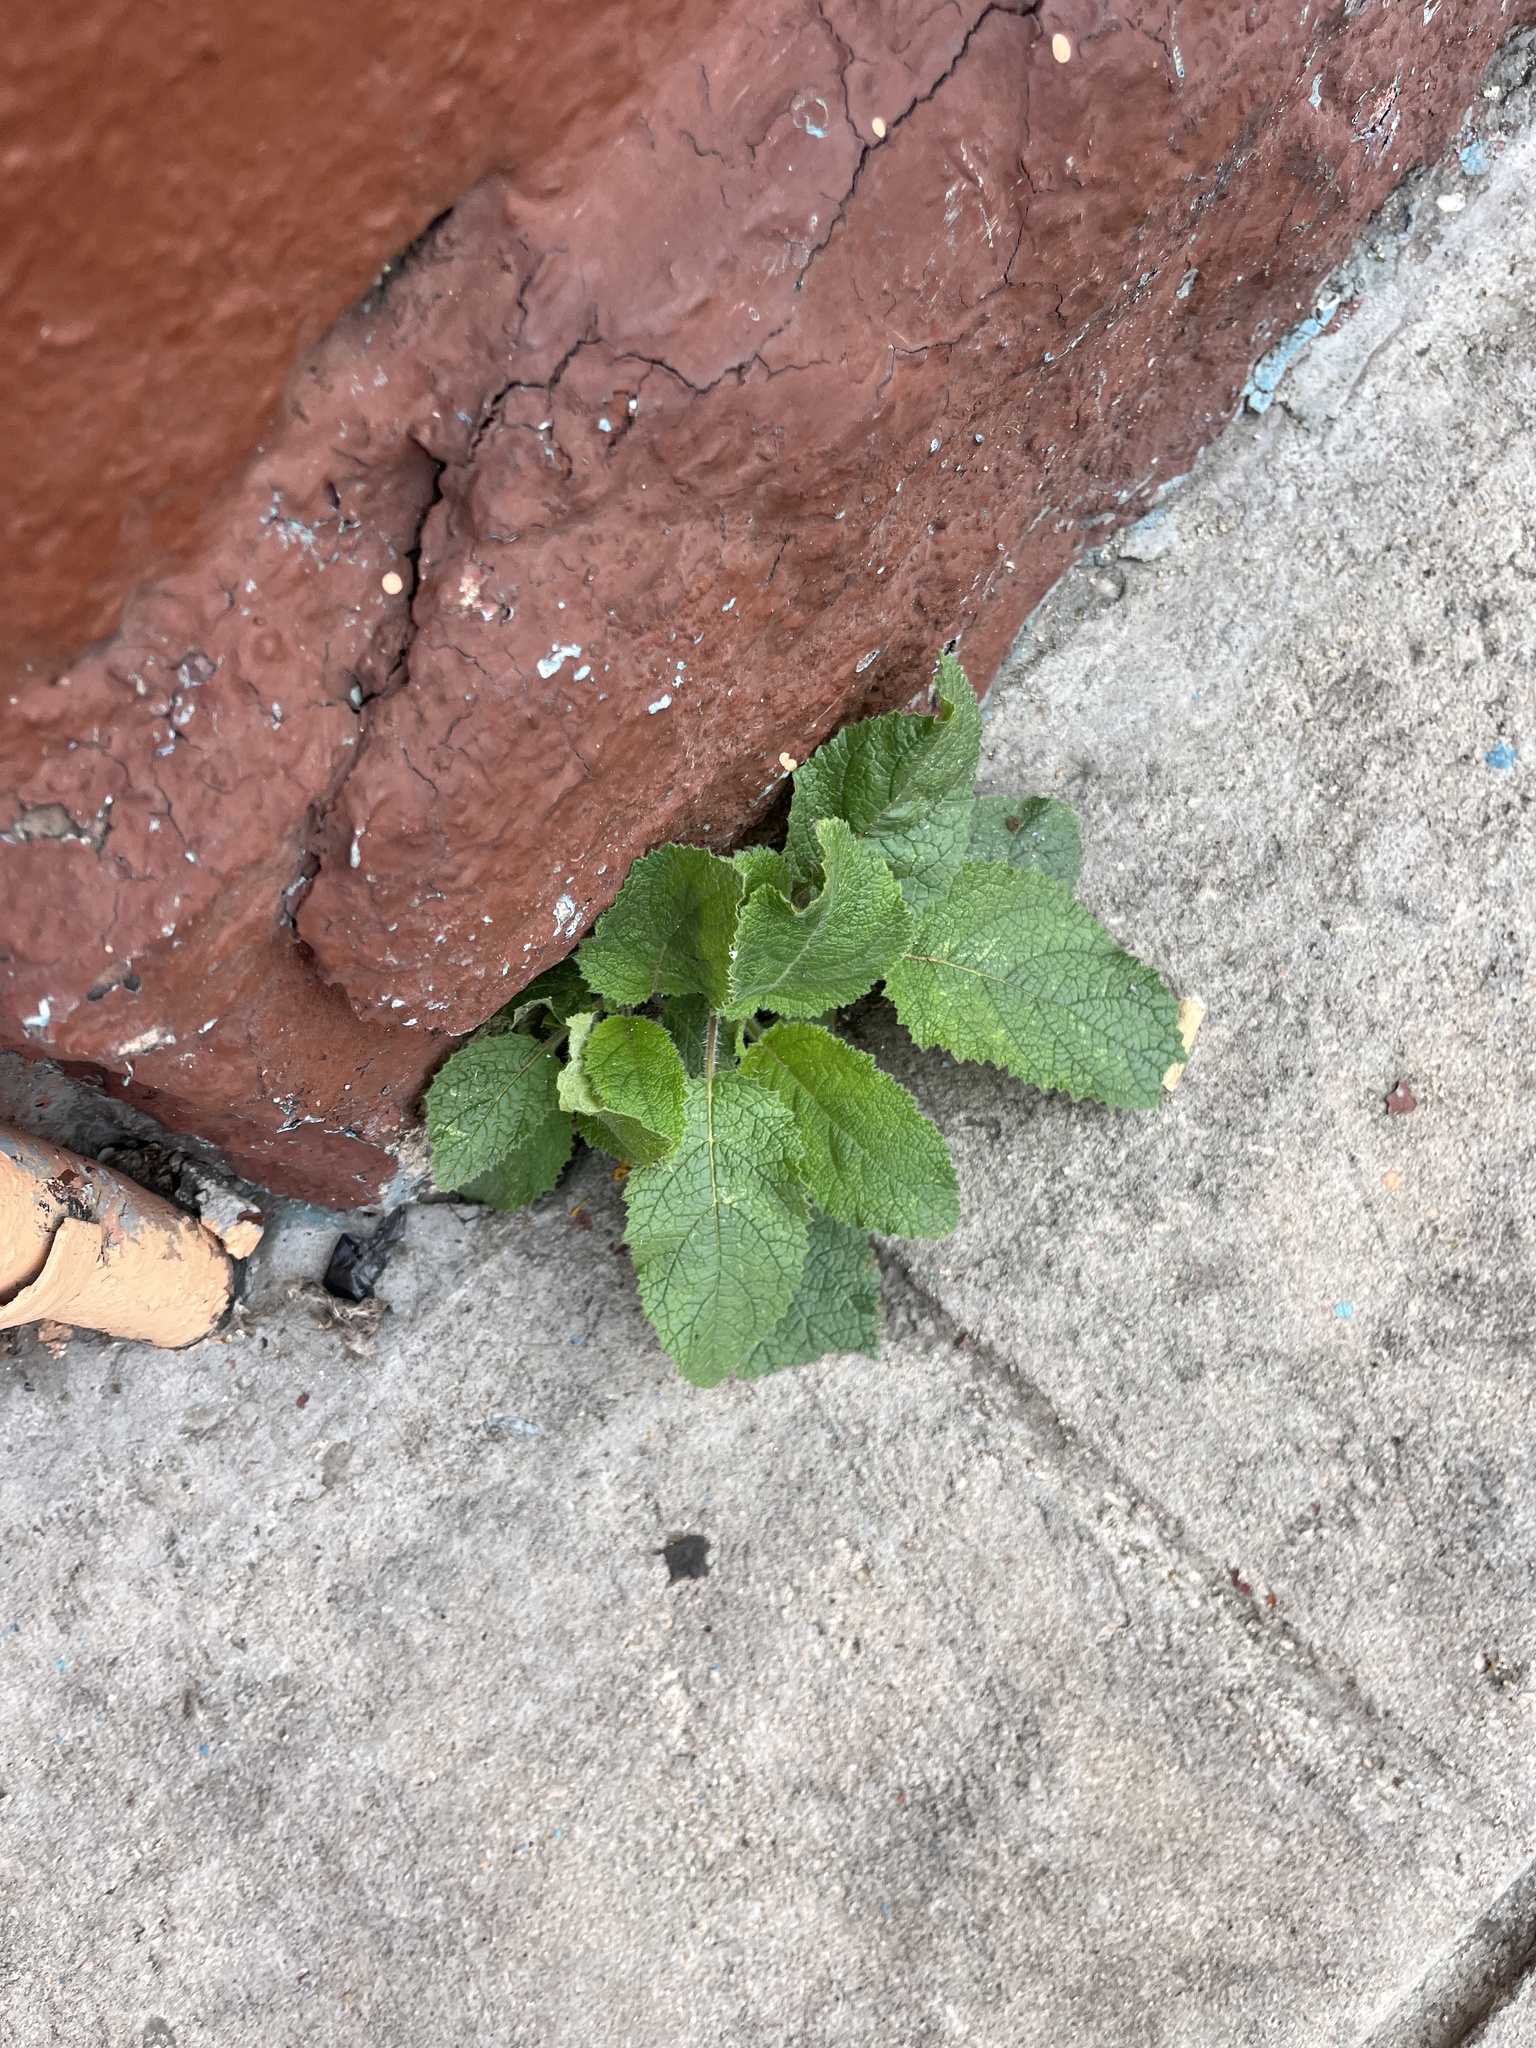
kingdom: Plantae
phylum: Tracheophyta
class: Magnoliopsida
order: Boraginales
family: Namaceae
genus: Wigandia
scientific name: Wigandia urens
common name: Caracus wigandia
